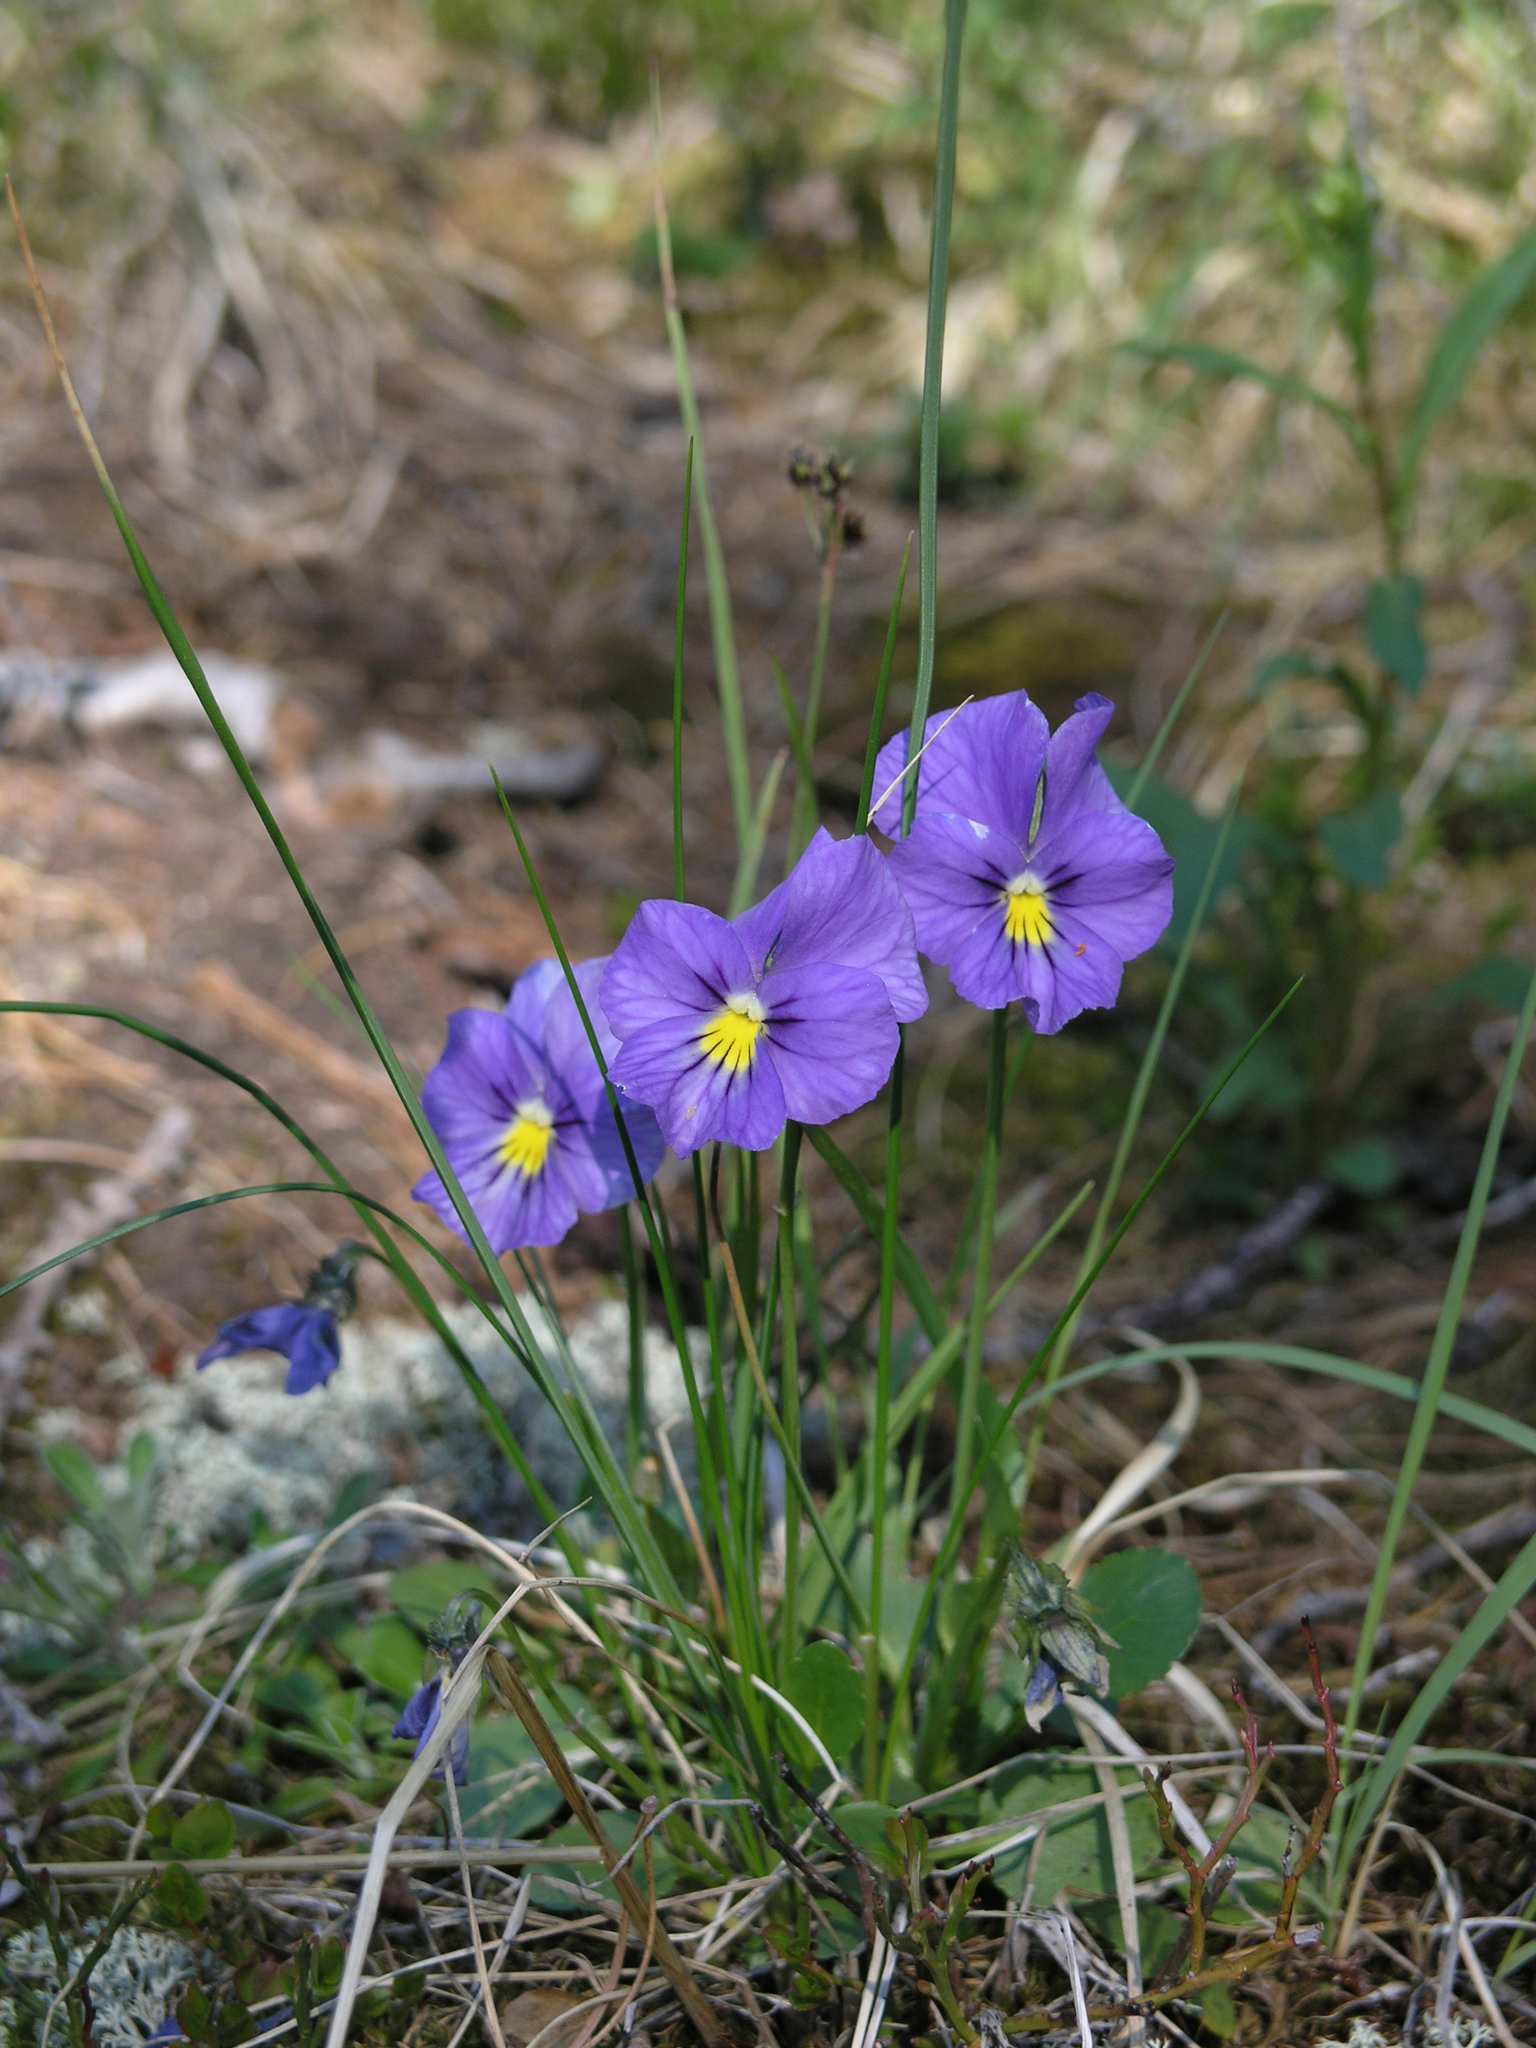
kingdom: Plantae
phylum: Tracheophyta
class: Magnoliopsida
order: Malpighiales
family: Violaceae
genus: Viola
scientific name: Viola altaica
